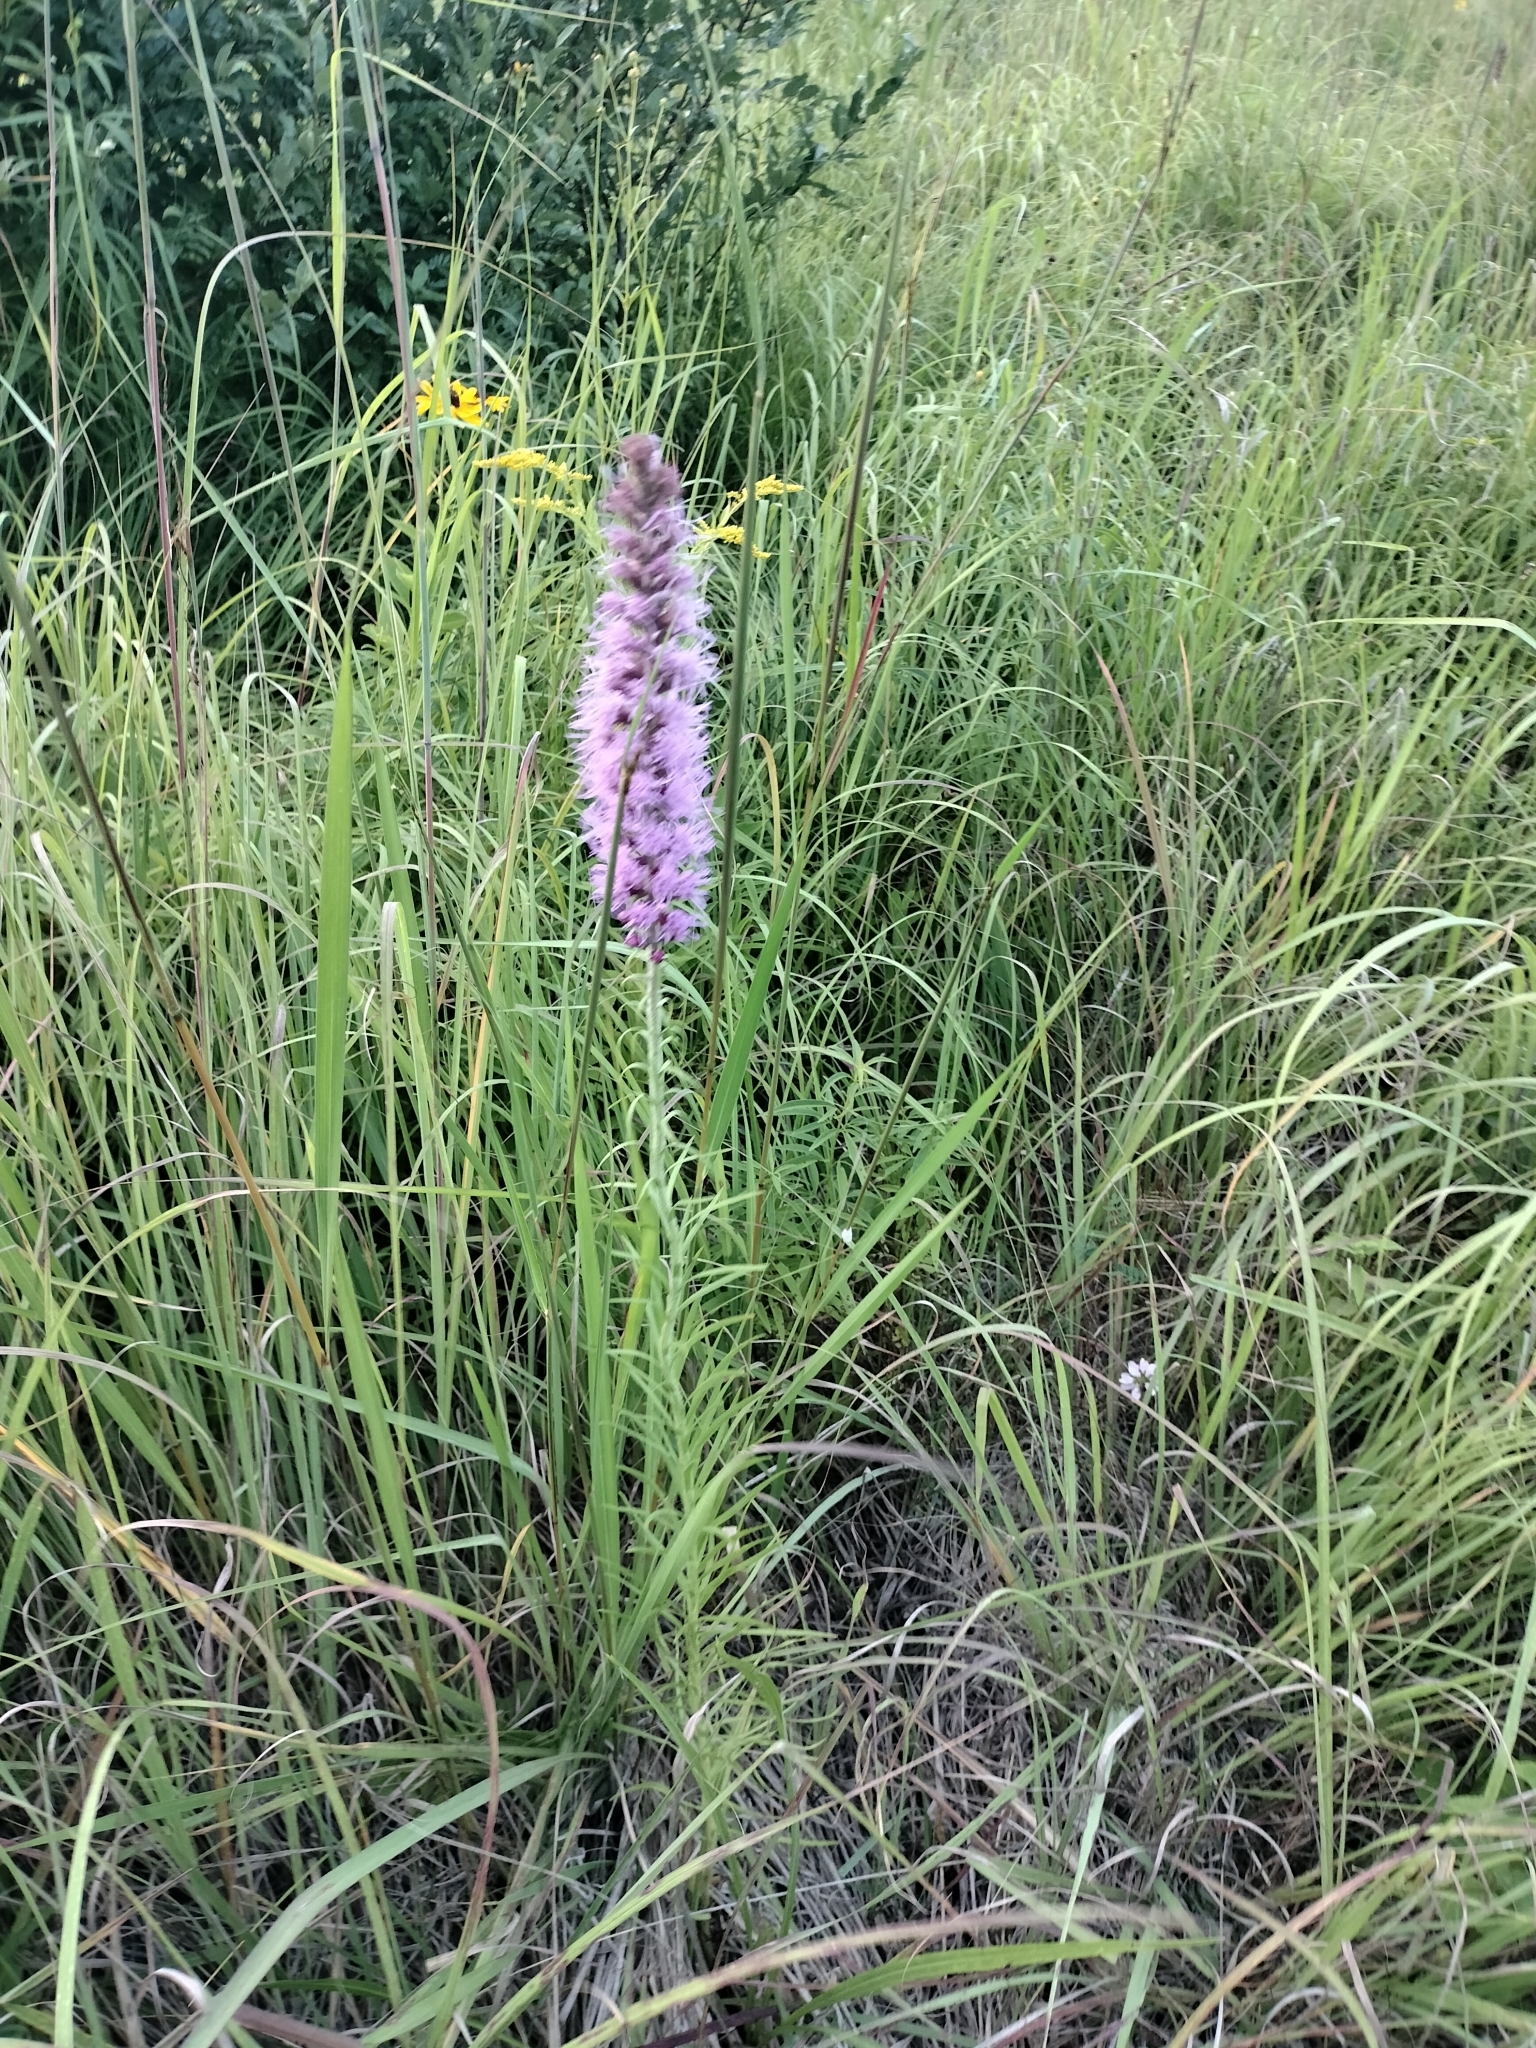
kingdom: Plantae
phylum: Tracheophyta
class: Magnoliopsida
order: Asterales
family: Asteraceae
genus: Liatris
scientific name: Liatris pycnostachya
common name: Cattail gayfeather
